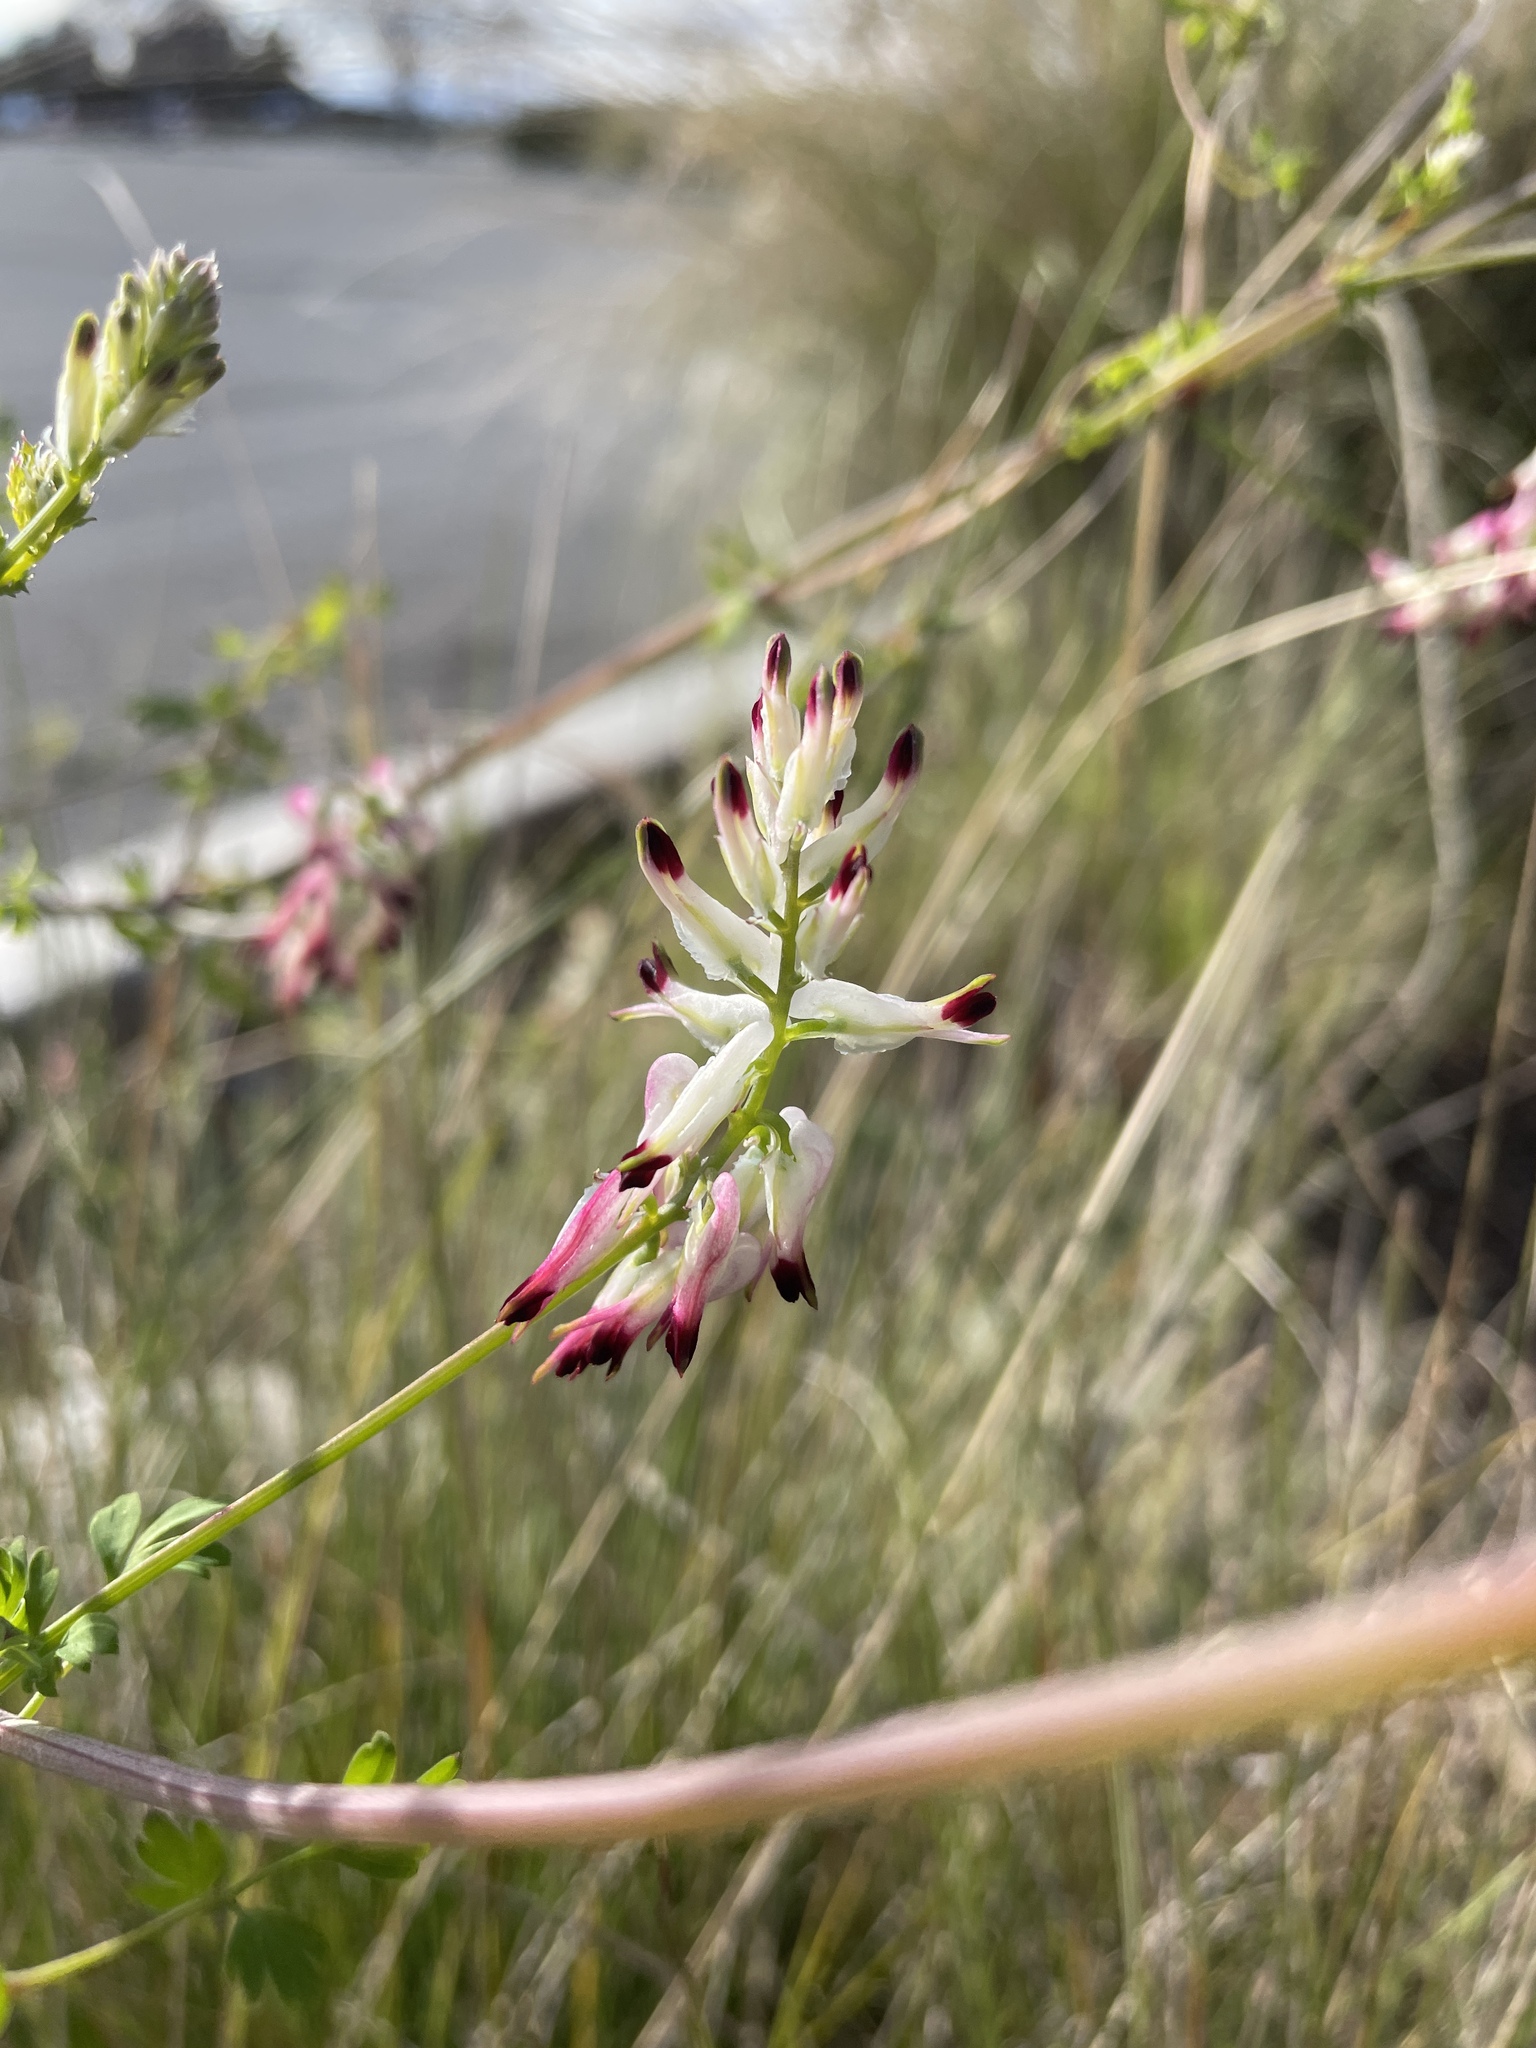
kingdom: Plantae
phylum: Tracheophyta
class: Magnoliopsida
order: Ranunculales
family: Papaveraceae
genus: Fumaria
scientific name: Fumaria capreolata
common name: White ramping-fumitory
